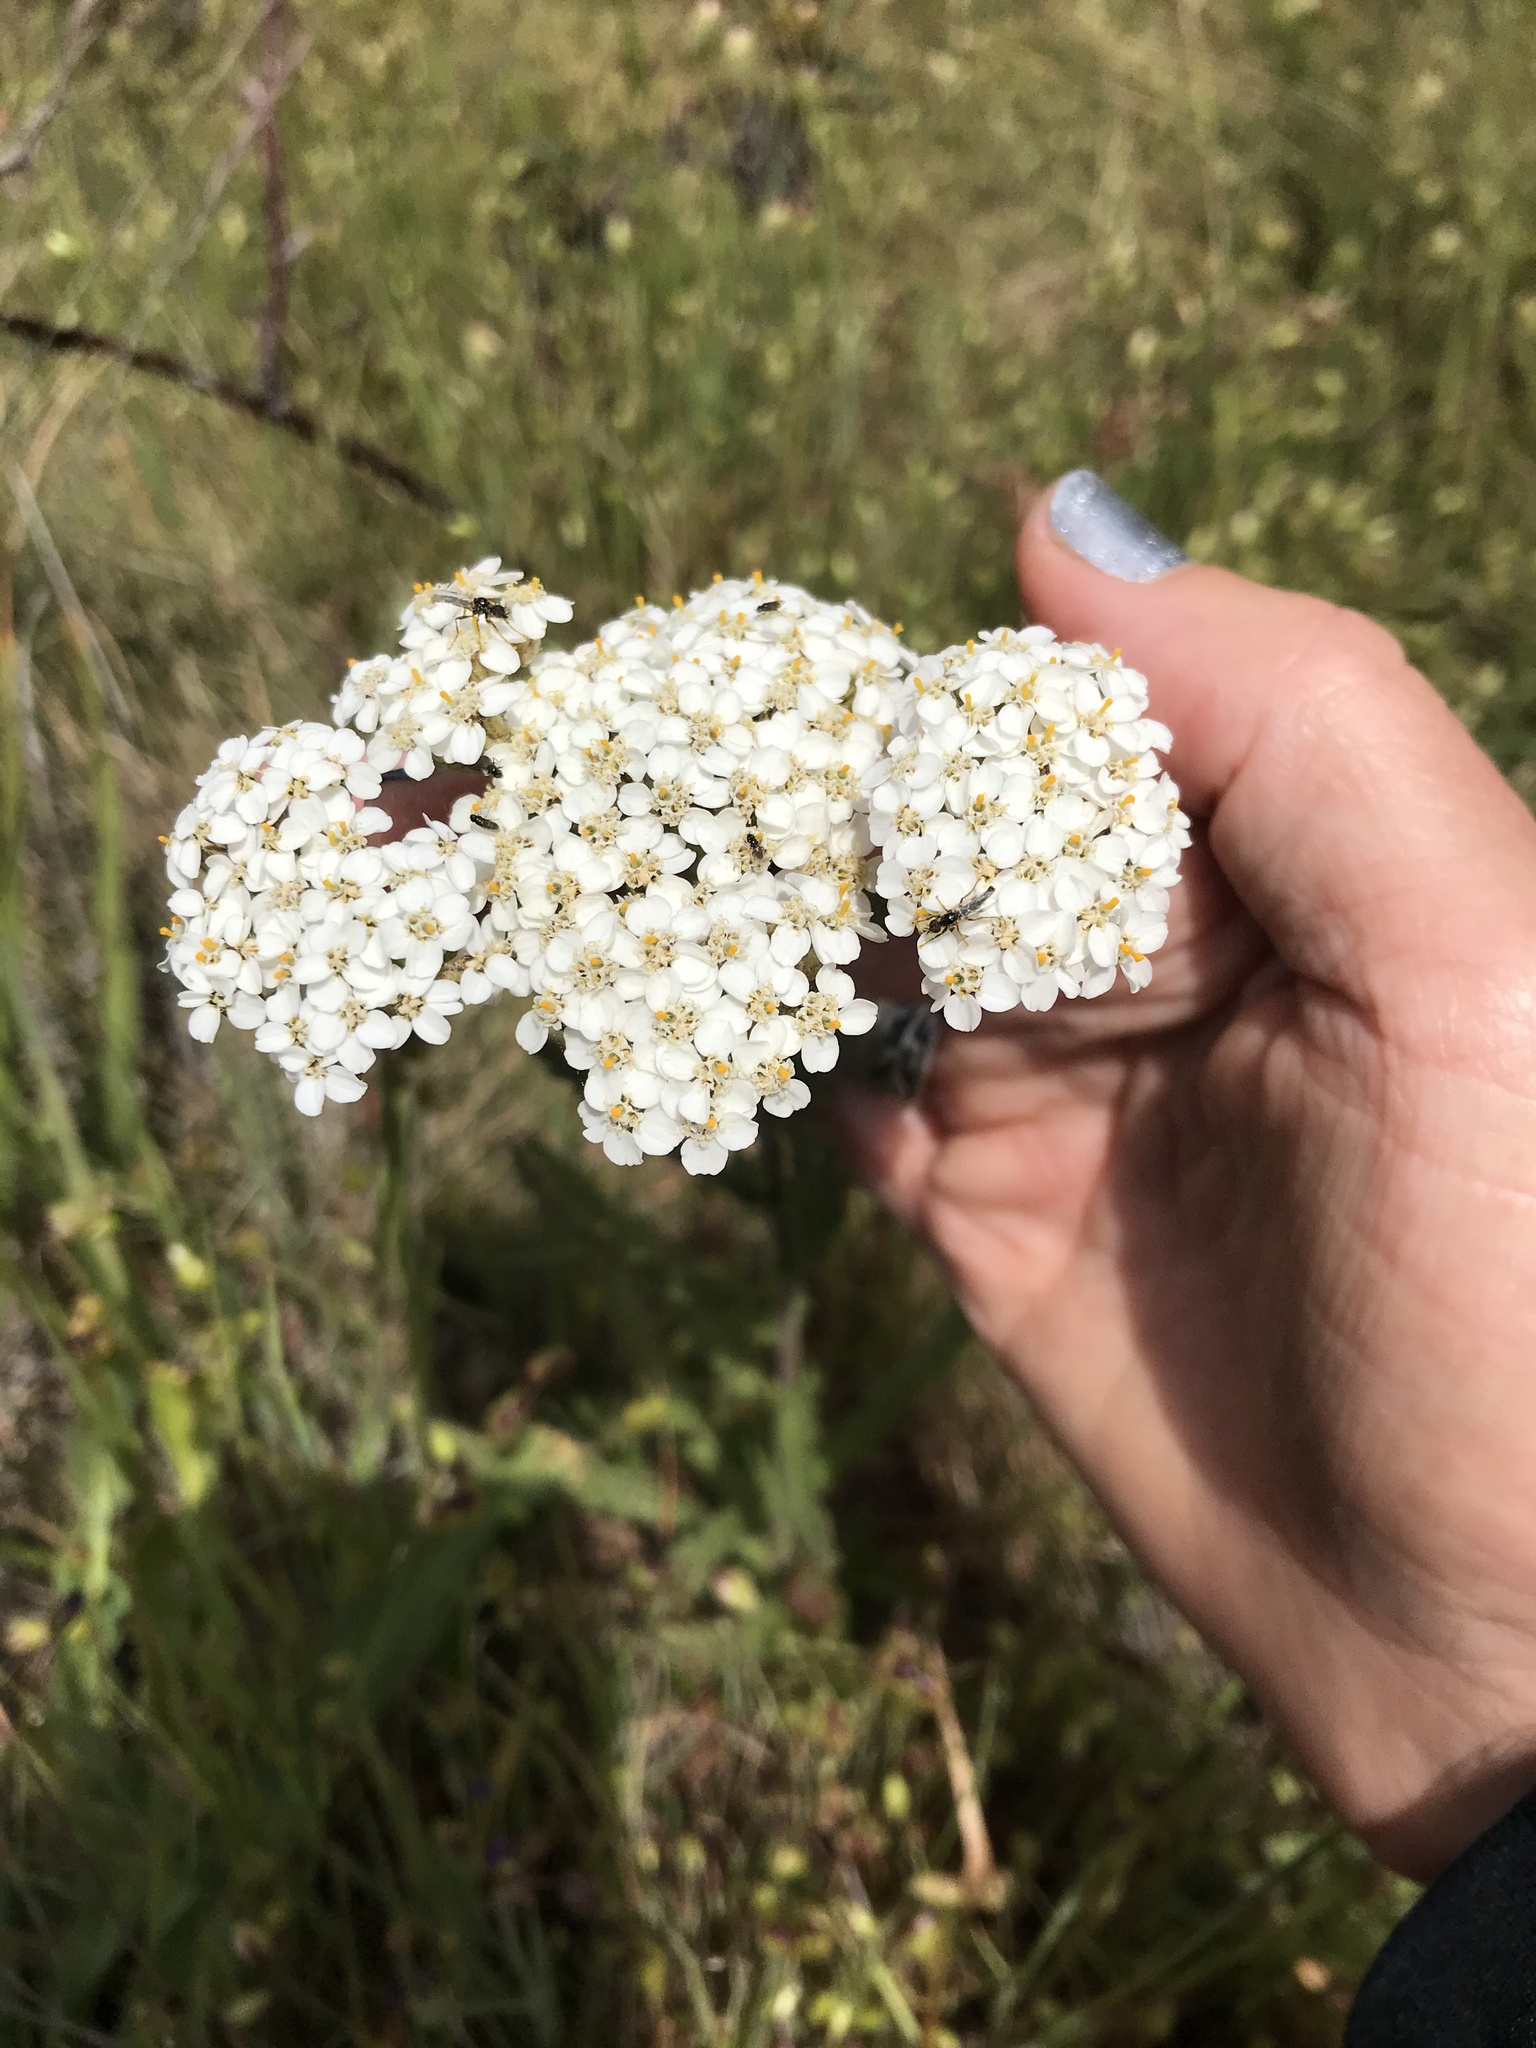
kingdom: Plantae
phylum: Tracheophyta
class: Magnoliopsida
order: Asterales
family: Asteraceae
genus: Achillea
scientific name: Achillea millefolium
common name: Yarrow
